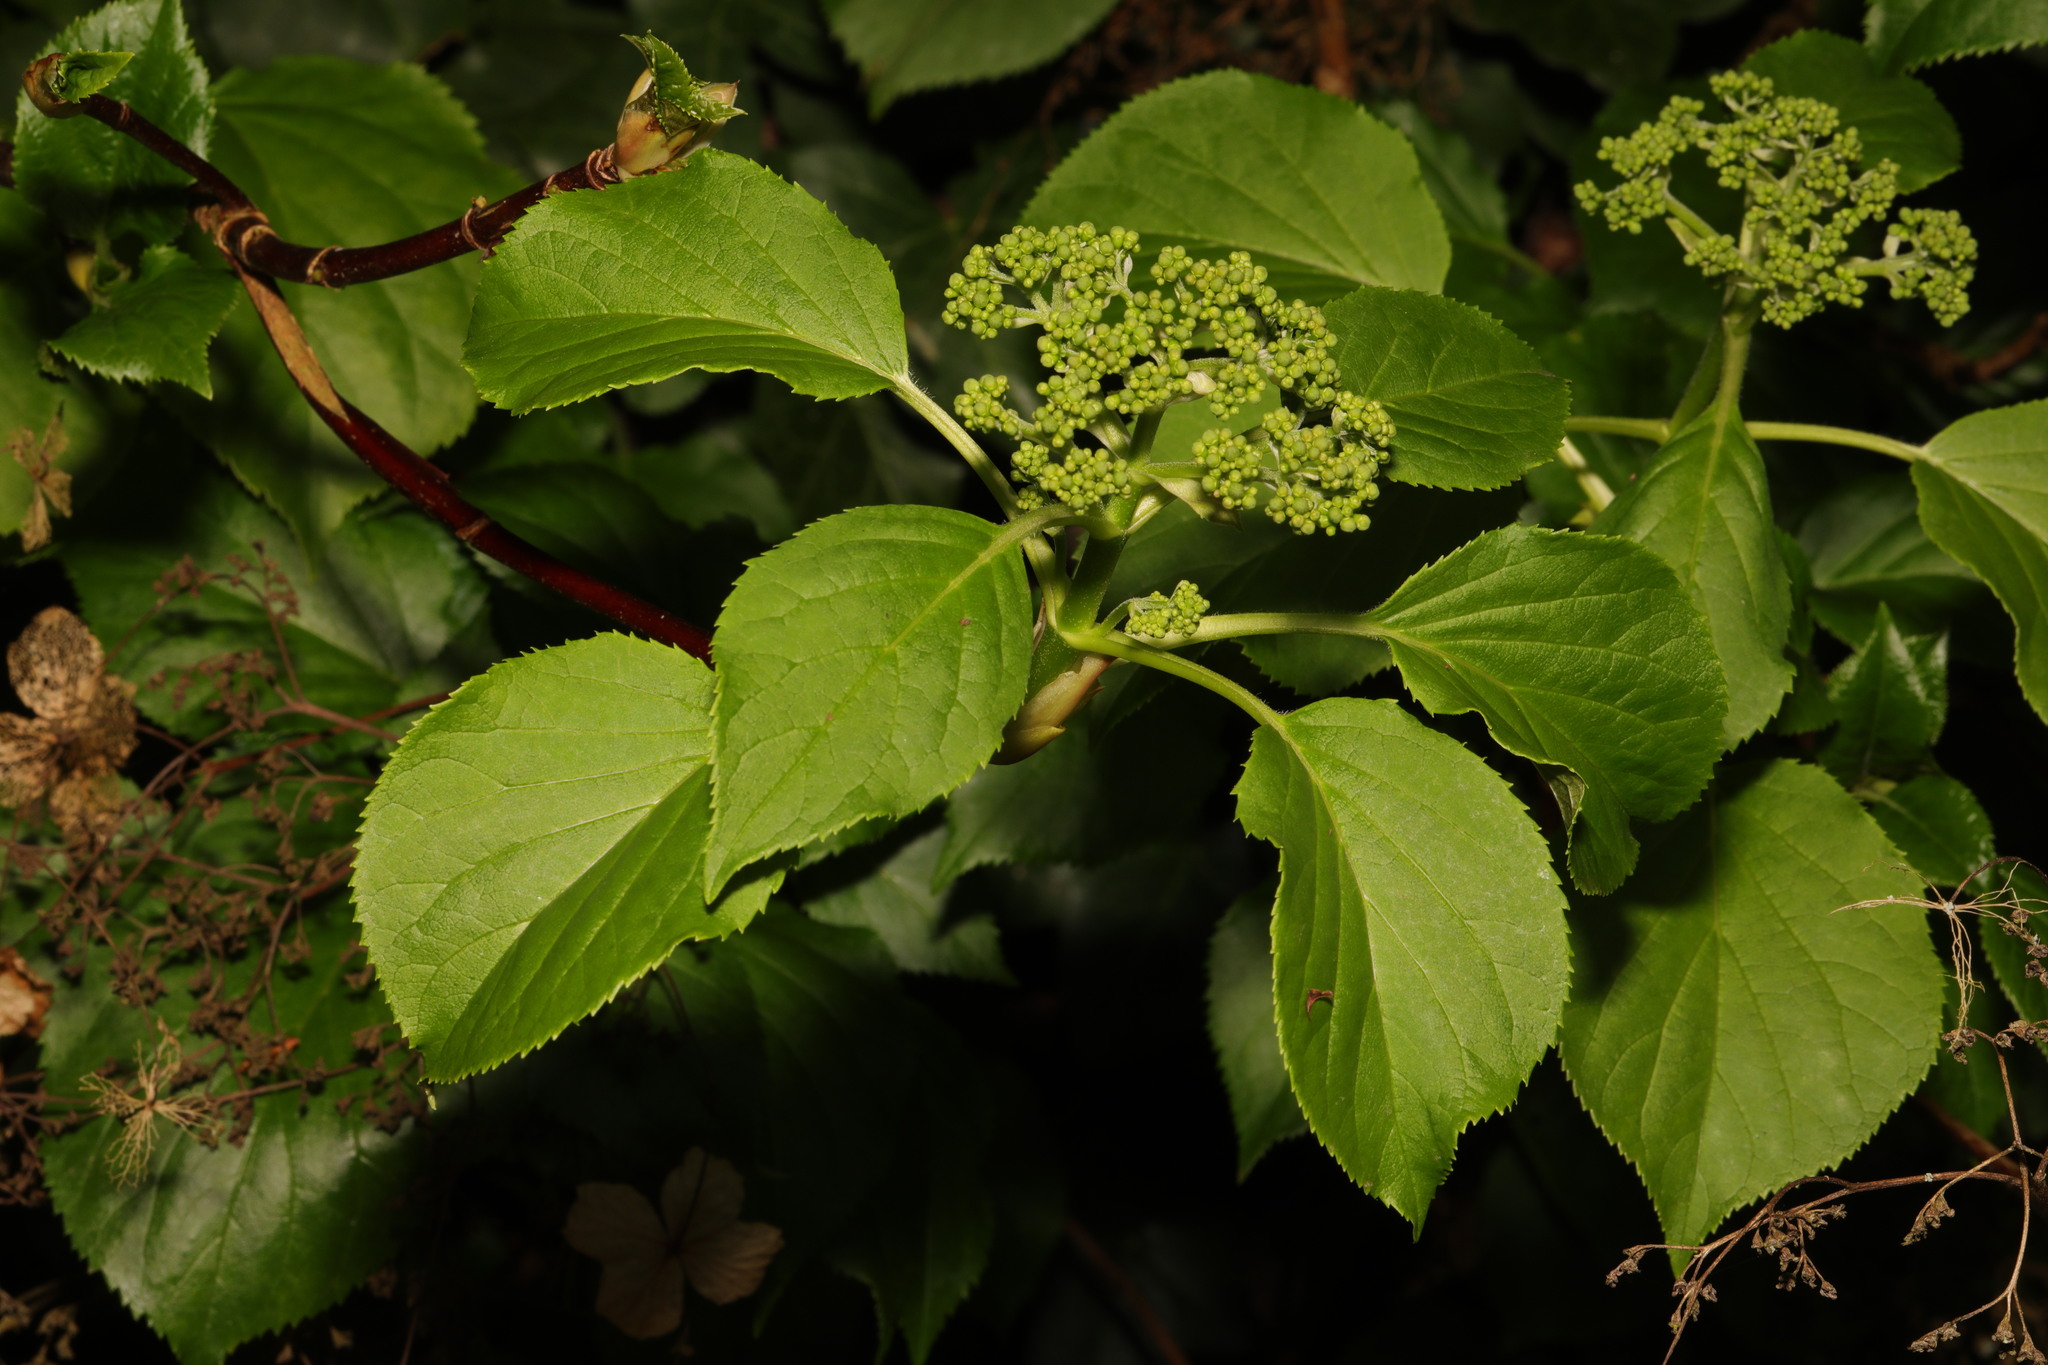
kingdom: Plantae
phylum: Tracheophyta
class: Magnoliopsida
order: Cornales
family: Hydrangeaceae
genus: Hydrangea
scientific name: Hydrangea petiolaris
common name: Japanese climbing hydrangea
